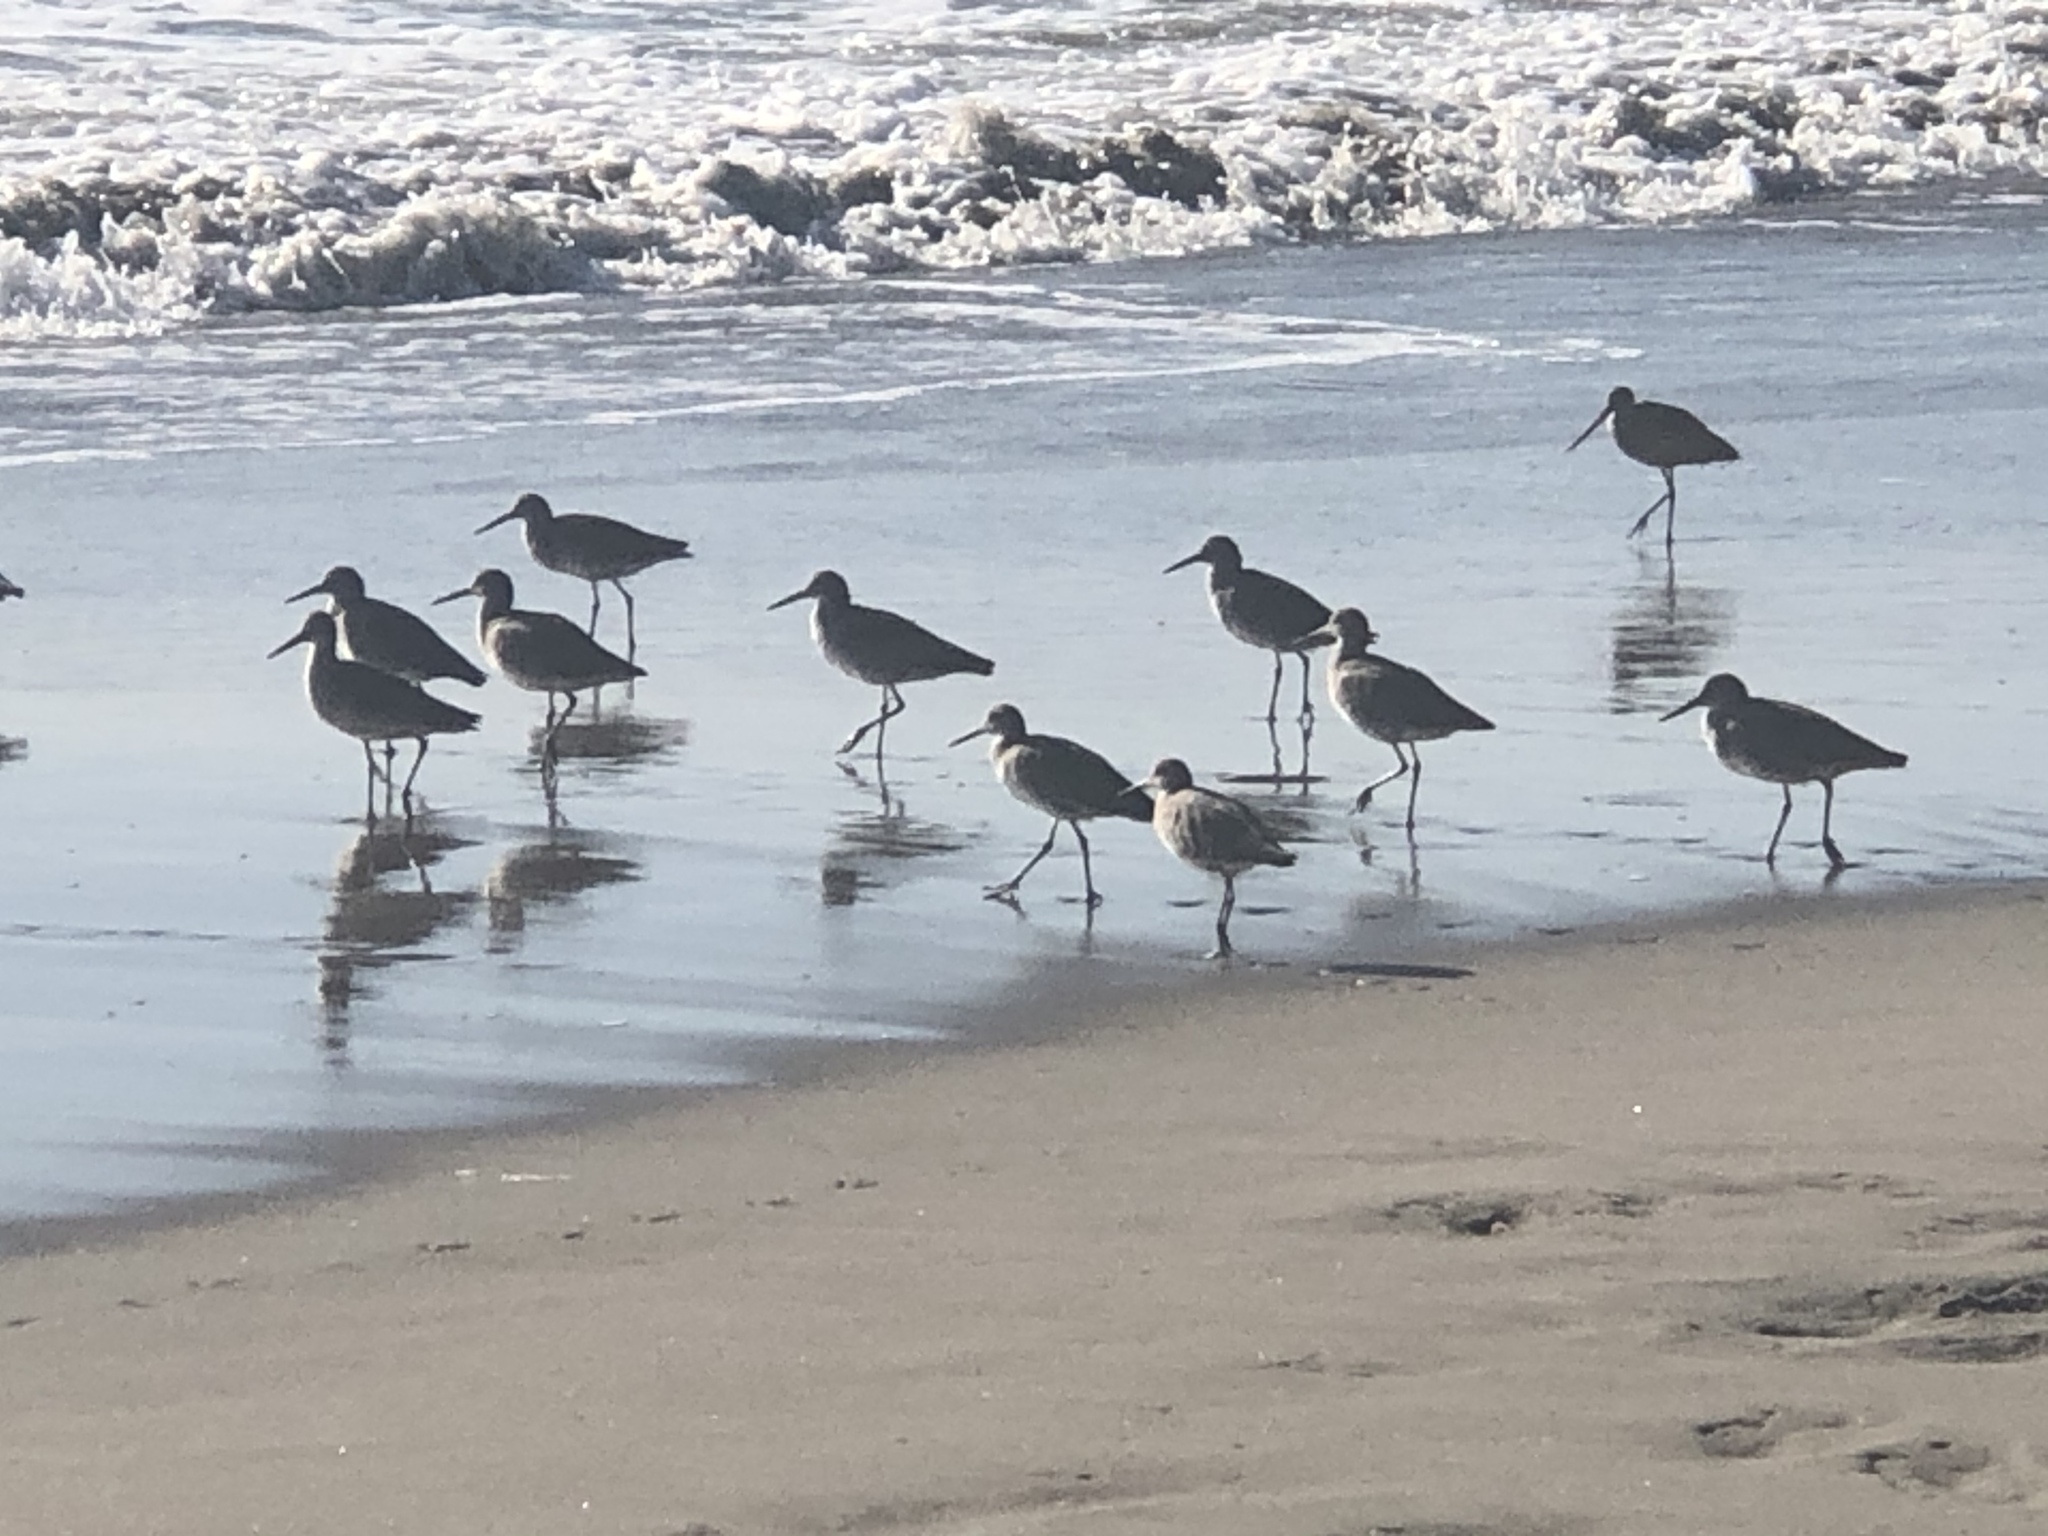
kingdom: Animalia
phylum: Chordata
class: Aves
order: Charadriiformes
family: Scolopacidae
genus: Tringa
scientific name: Tringa semipalmata
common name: Willet
